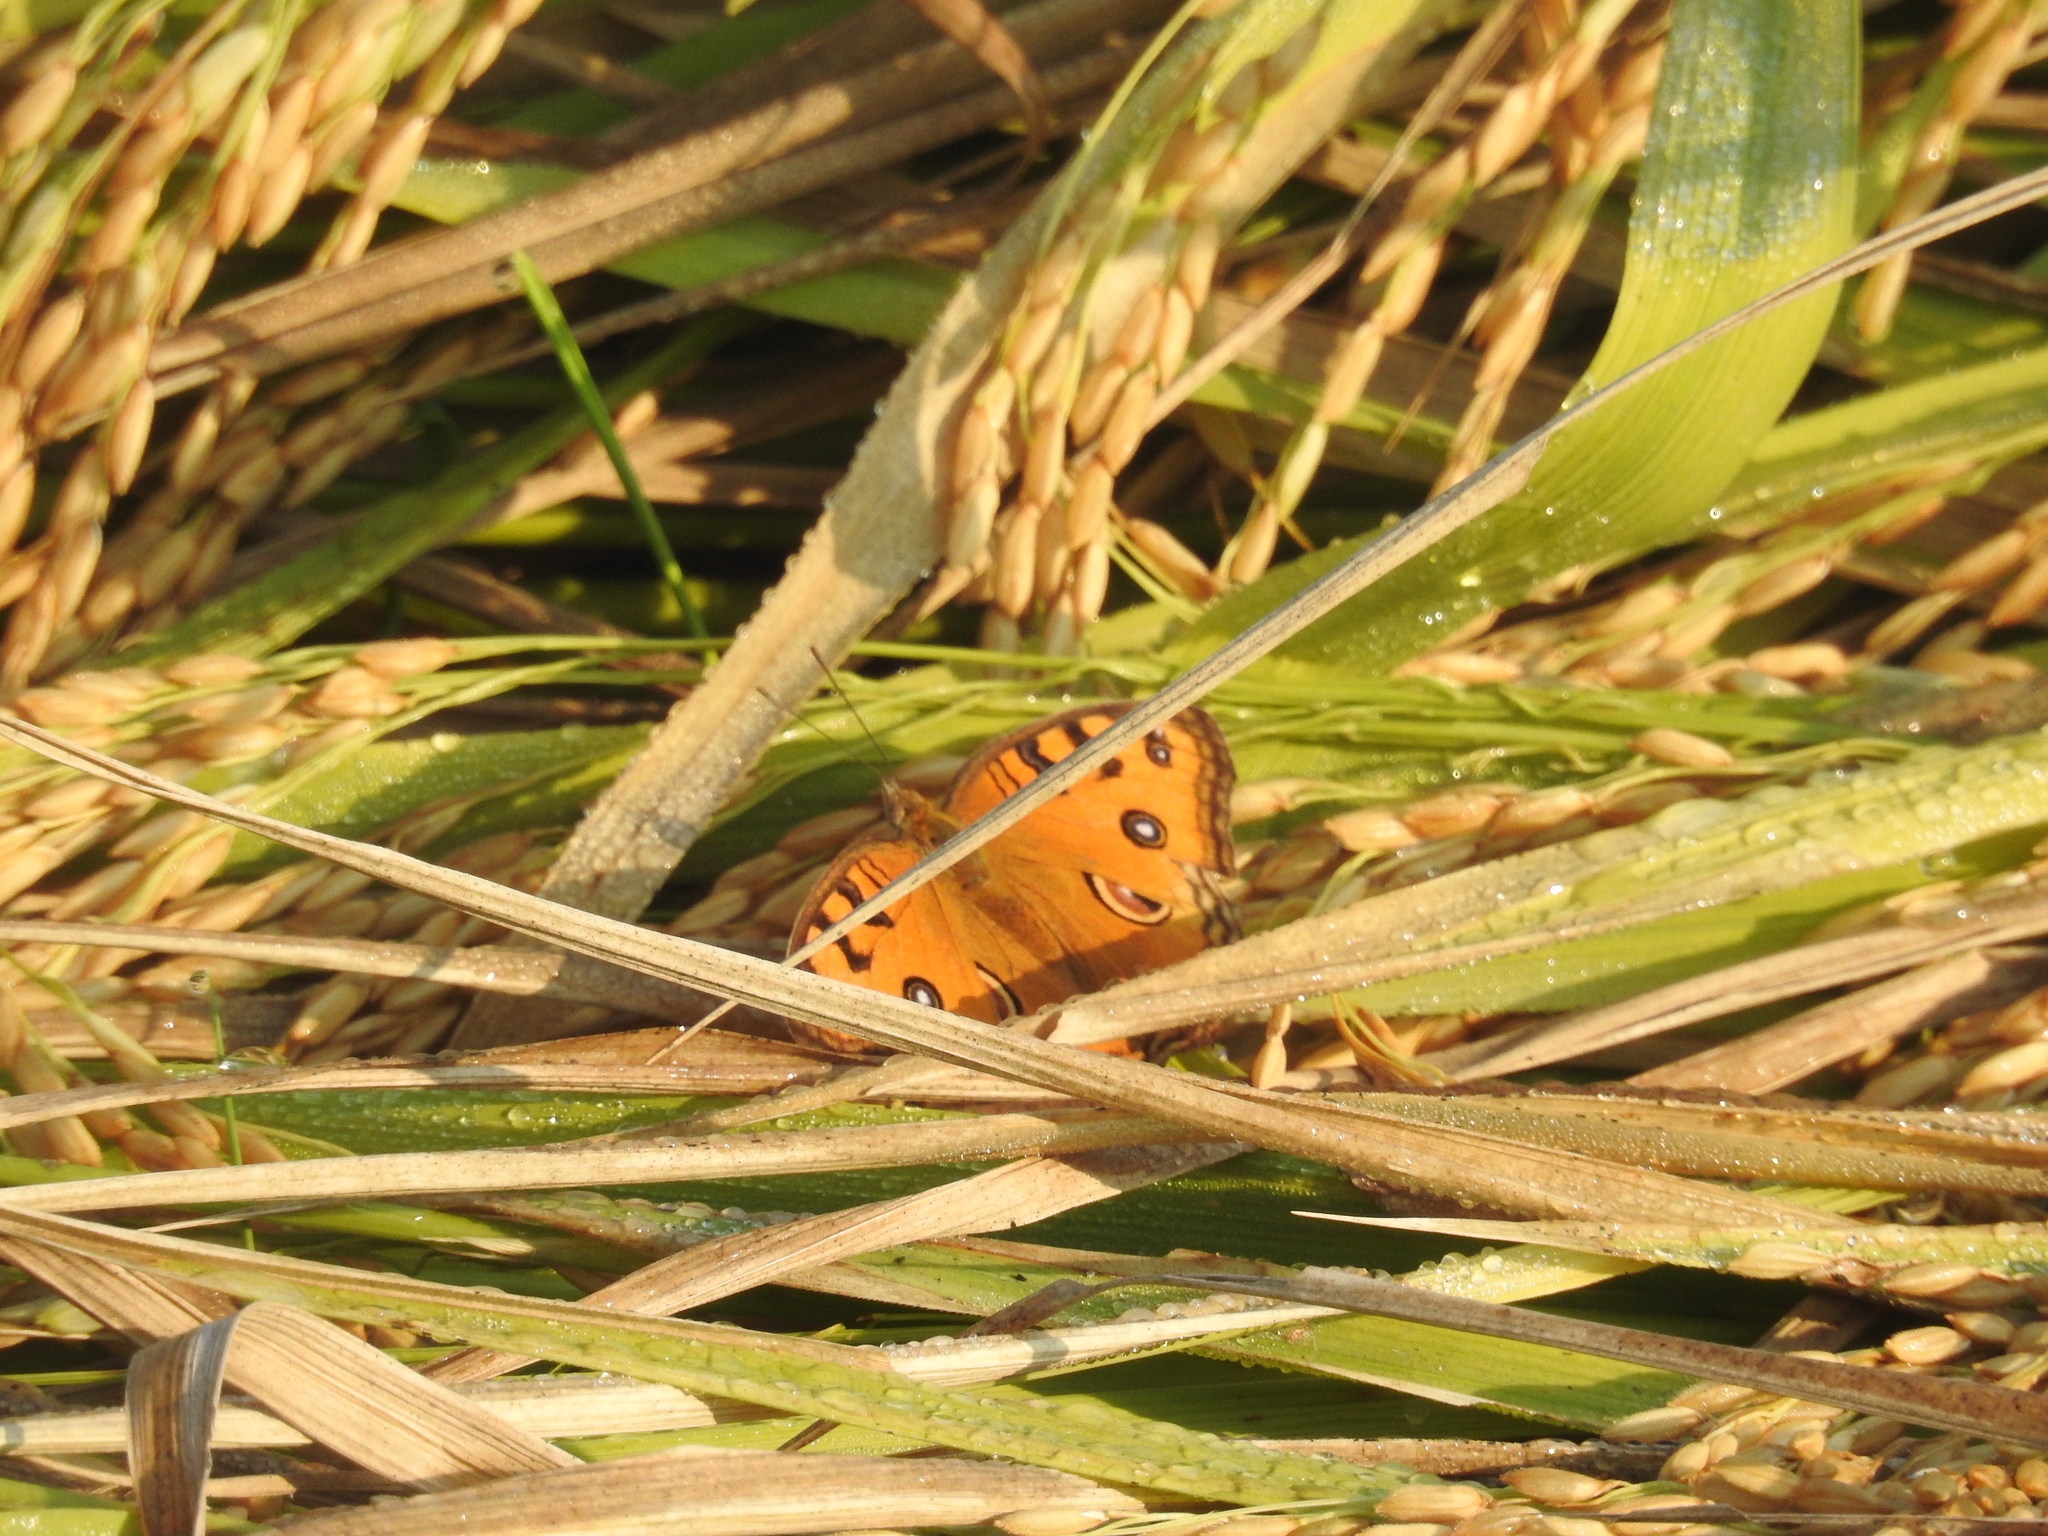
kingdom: Animalia
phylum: Arthropoda
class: Insecta
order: Lepidoptera
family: Nymphalidae
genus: Junonia
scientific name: Junonia almana
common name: Peacock pansy
